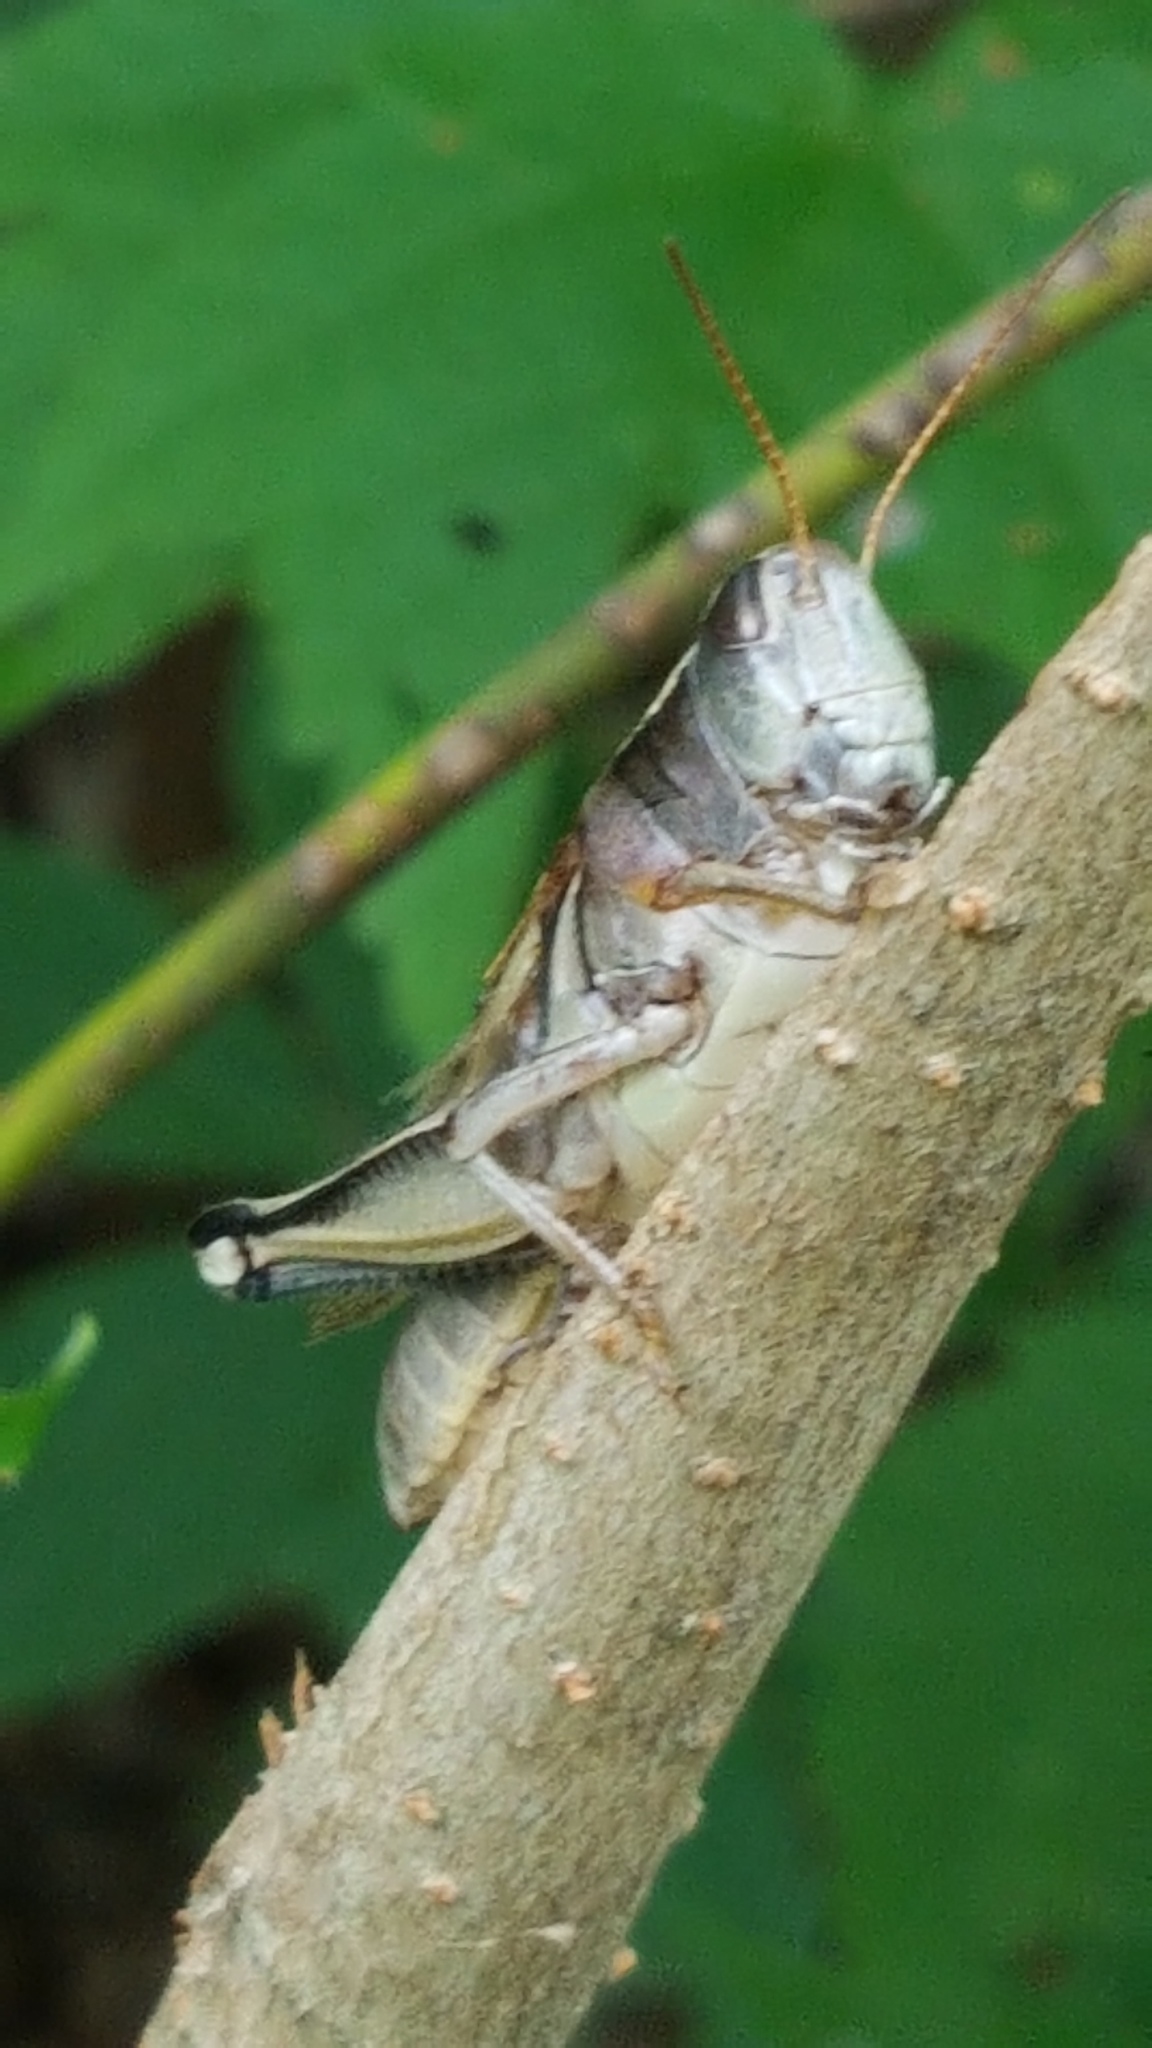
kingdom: Animalia
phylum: Arthropoda
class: Insecta
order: Orthoptera
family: Acrididae
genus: Melanoplus
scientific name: Melanoplus bivittatus
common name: Two-striped grasshopper
